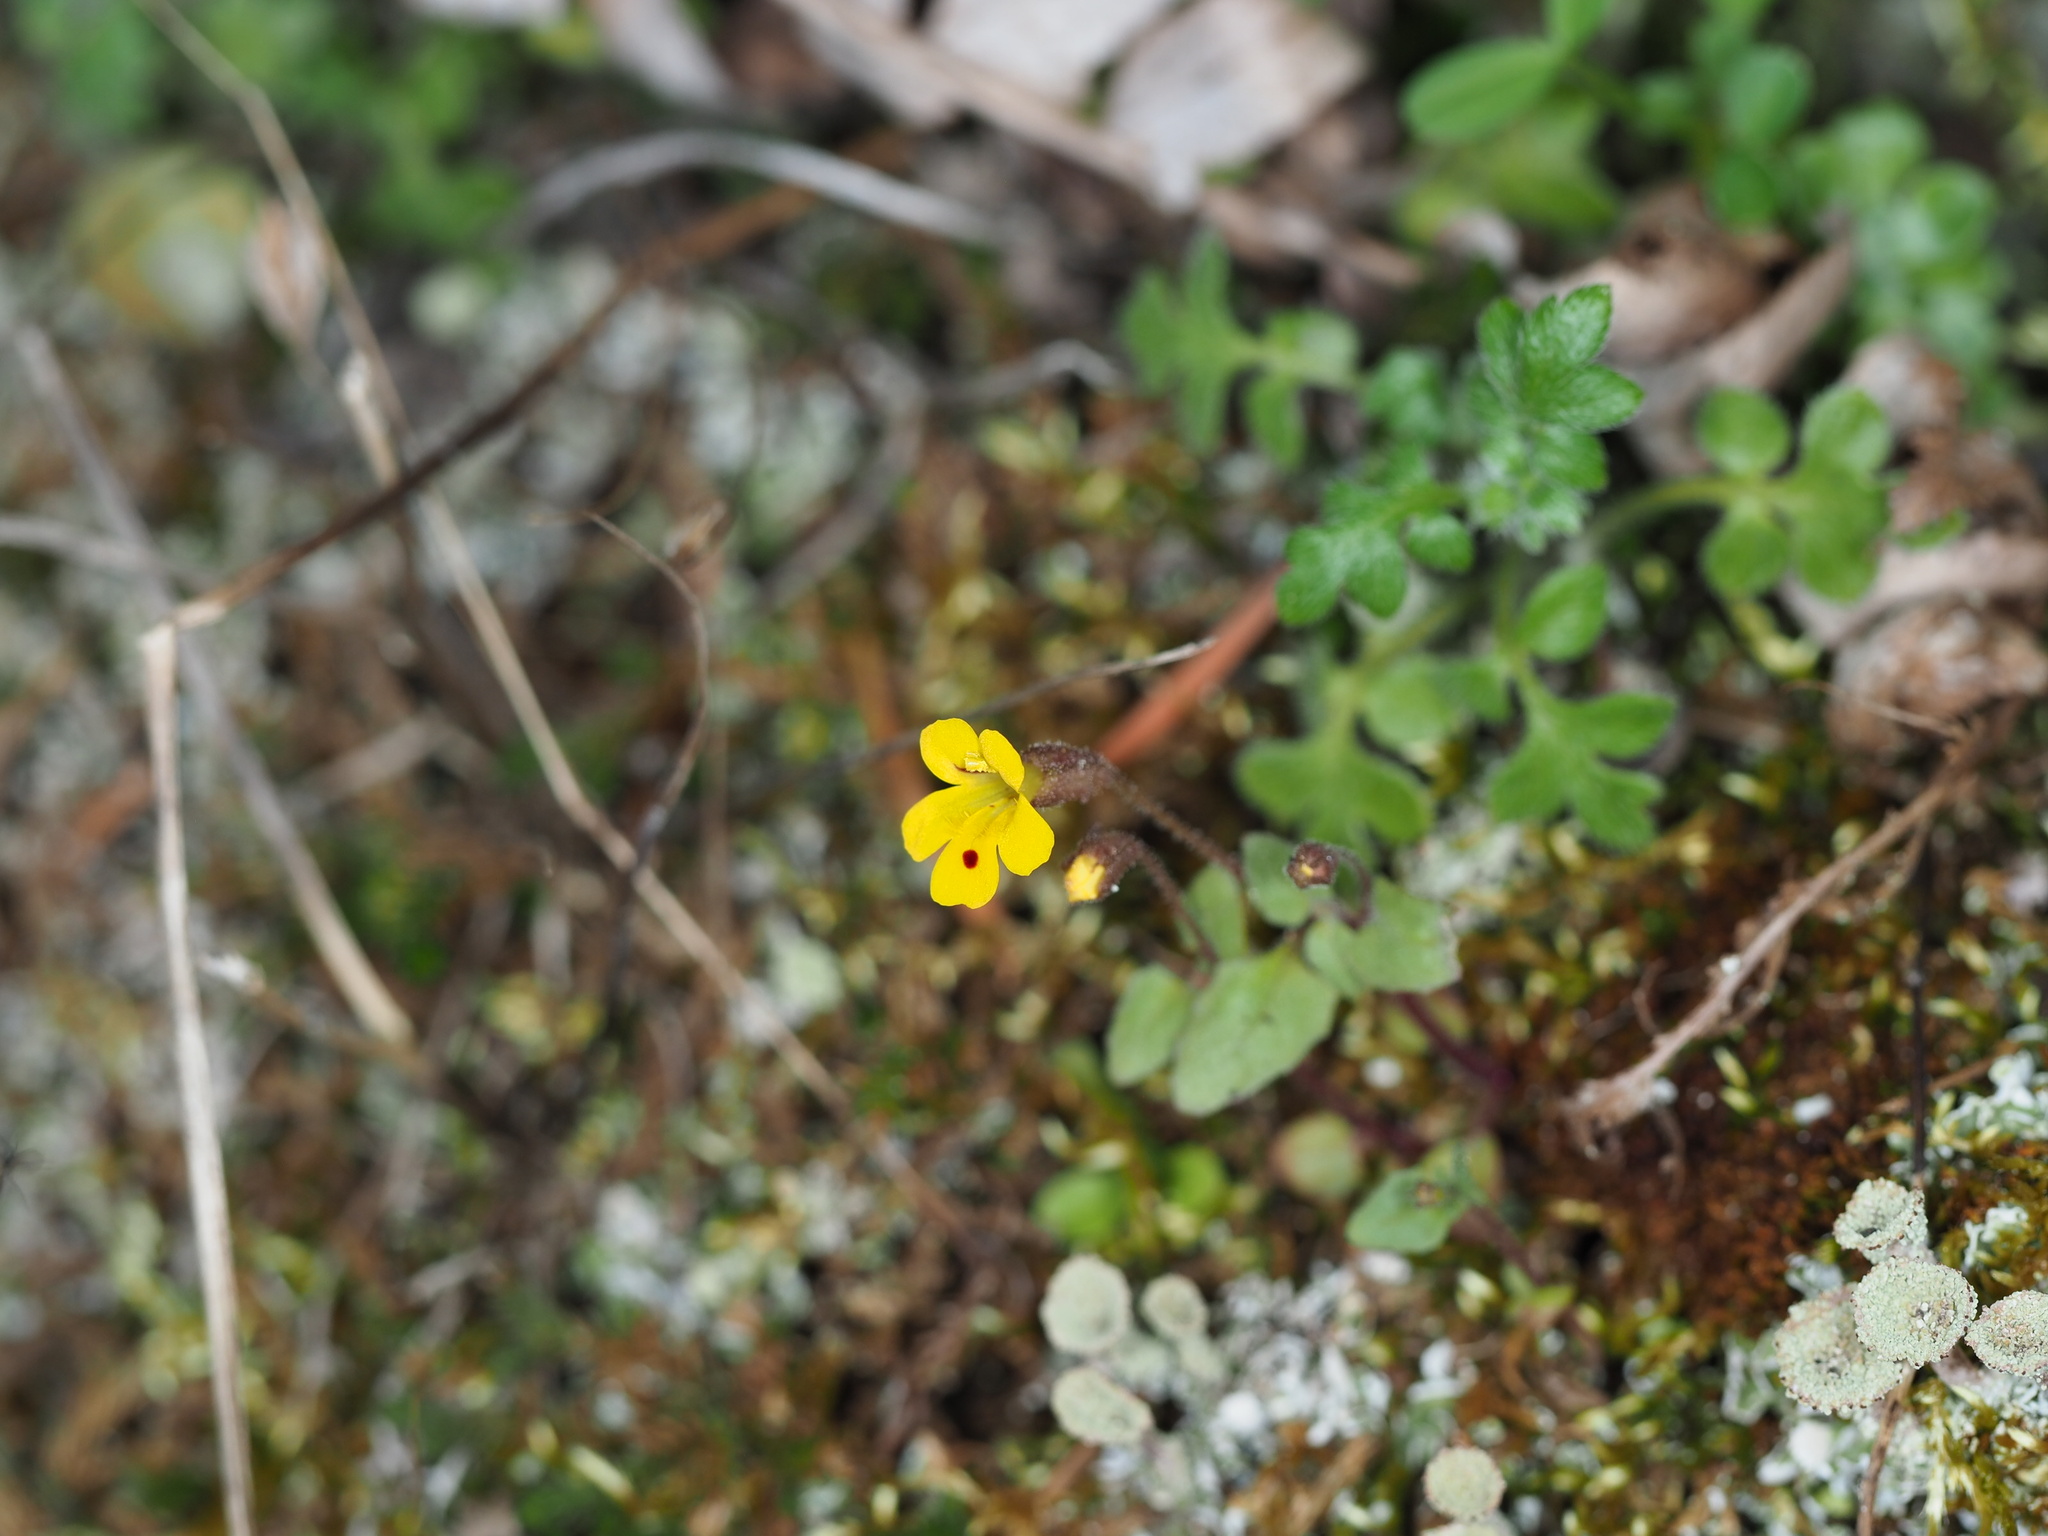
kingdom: Plantae
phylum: Tracheophyta
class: Magnoliopsida
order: Lamiales
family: Phrymaceae
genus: Erythranthe
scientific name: Erythranthe alsinoides
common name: Chickweed monkeyflower
